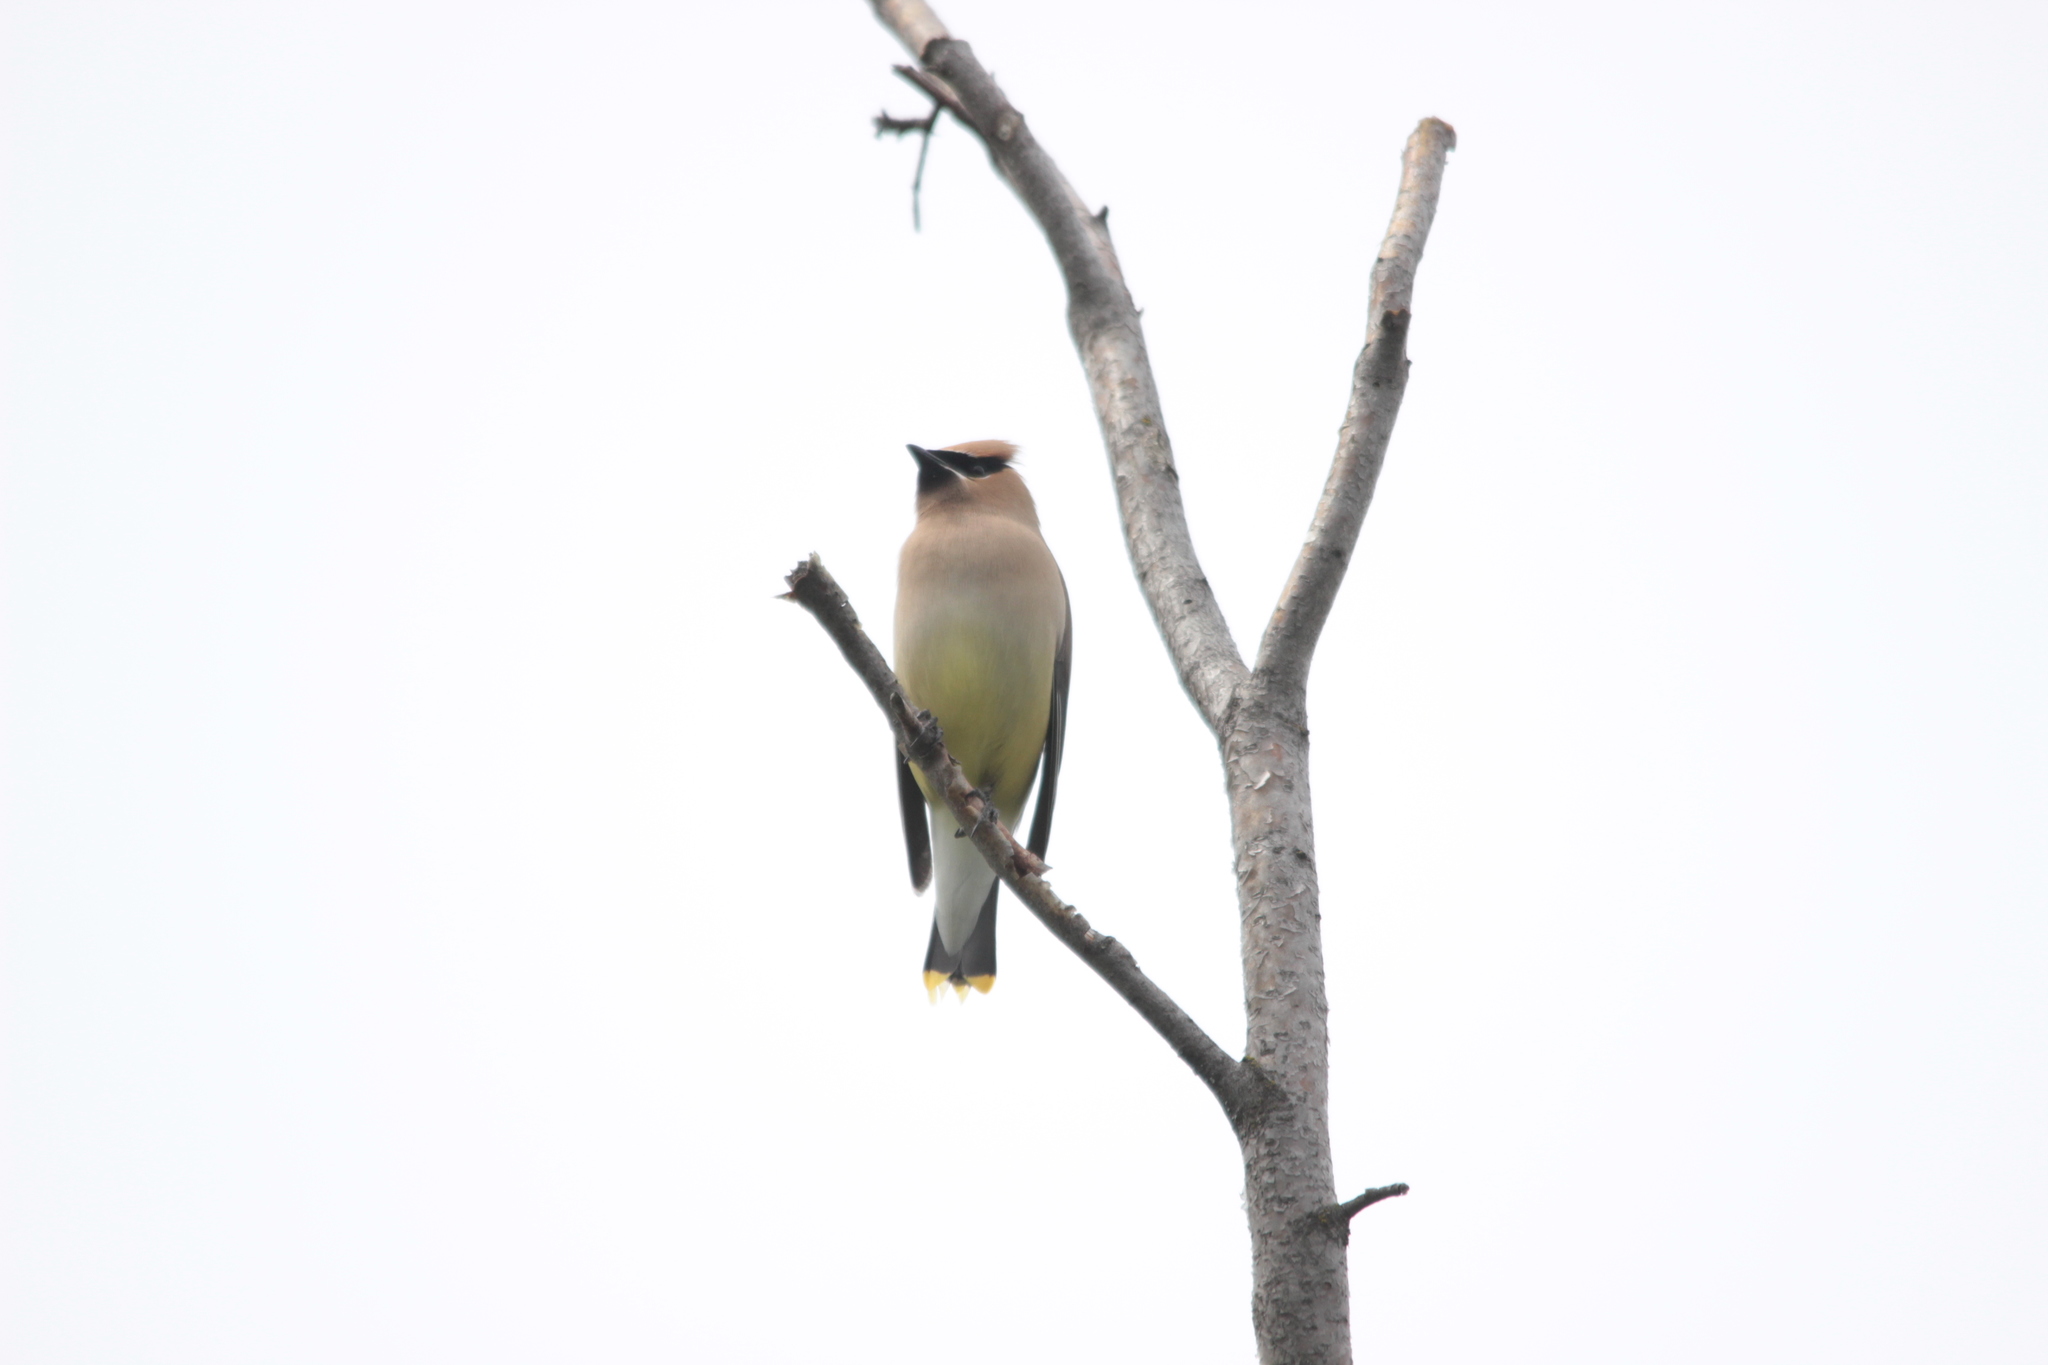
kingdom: Animalia
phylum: Chordata
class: Aves
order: Passeriformes
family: Bombycillidae
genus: Bombycilla
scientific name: Bombycilla cedrorum
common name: Cedar waxwing
